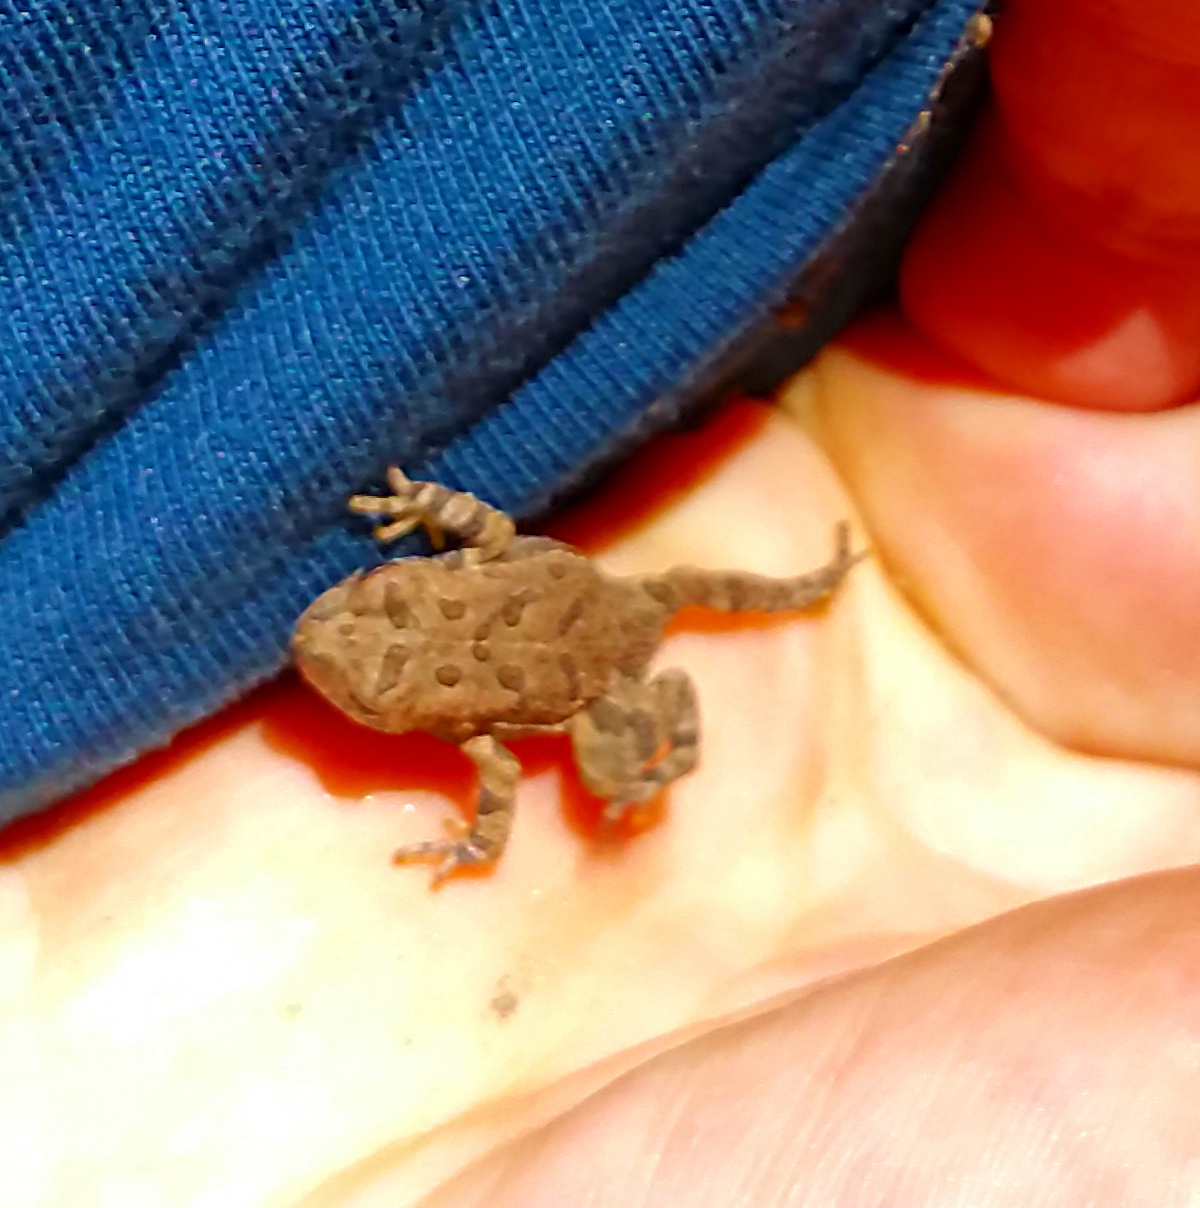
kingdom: Animalia
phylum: Chordata
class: Amphibia
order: Anura
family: Bufonidae
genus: Anaxyrus
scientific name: Anaxyrus fowleri
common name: Fowler's toad
